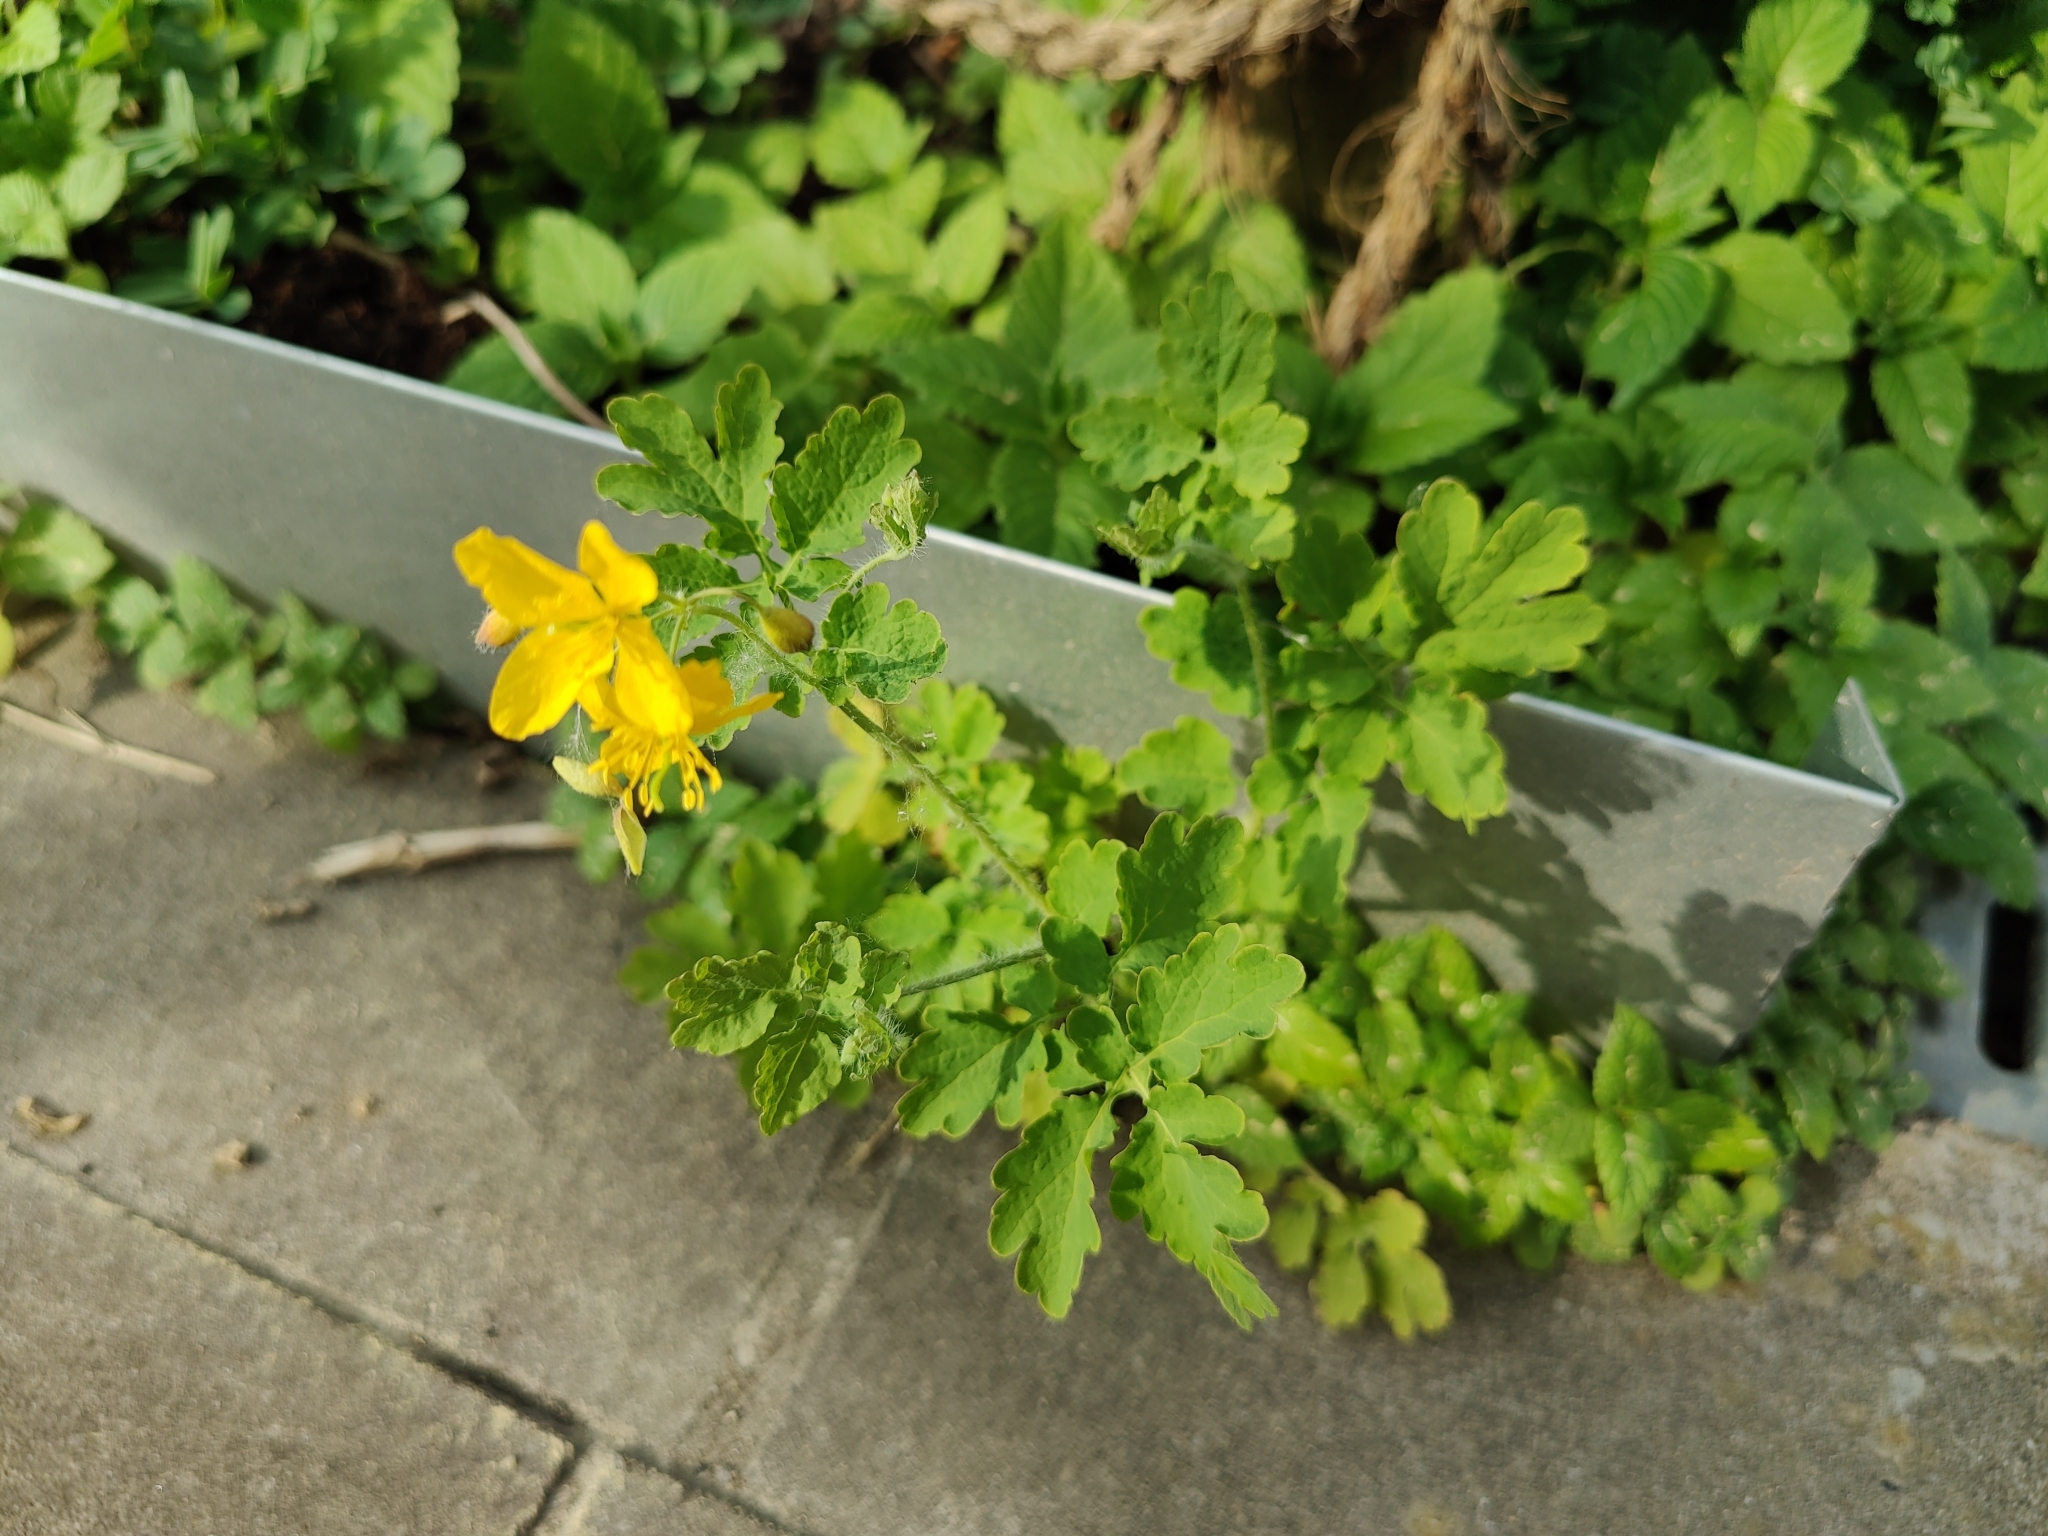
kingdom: Plantae
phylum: Tracheophyta
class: Magnoliopsida
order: Ranunculales
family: Papaveraceae
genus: Chelidonium
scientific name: Chelidonium majus
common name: Greater celandine
